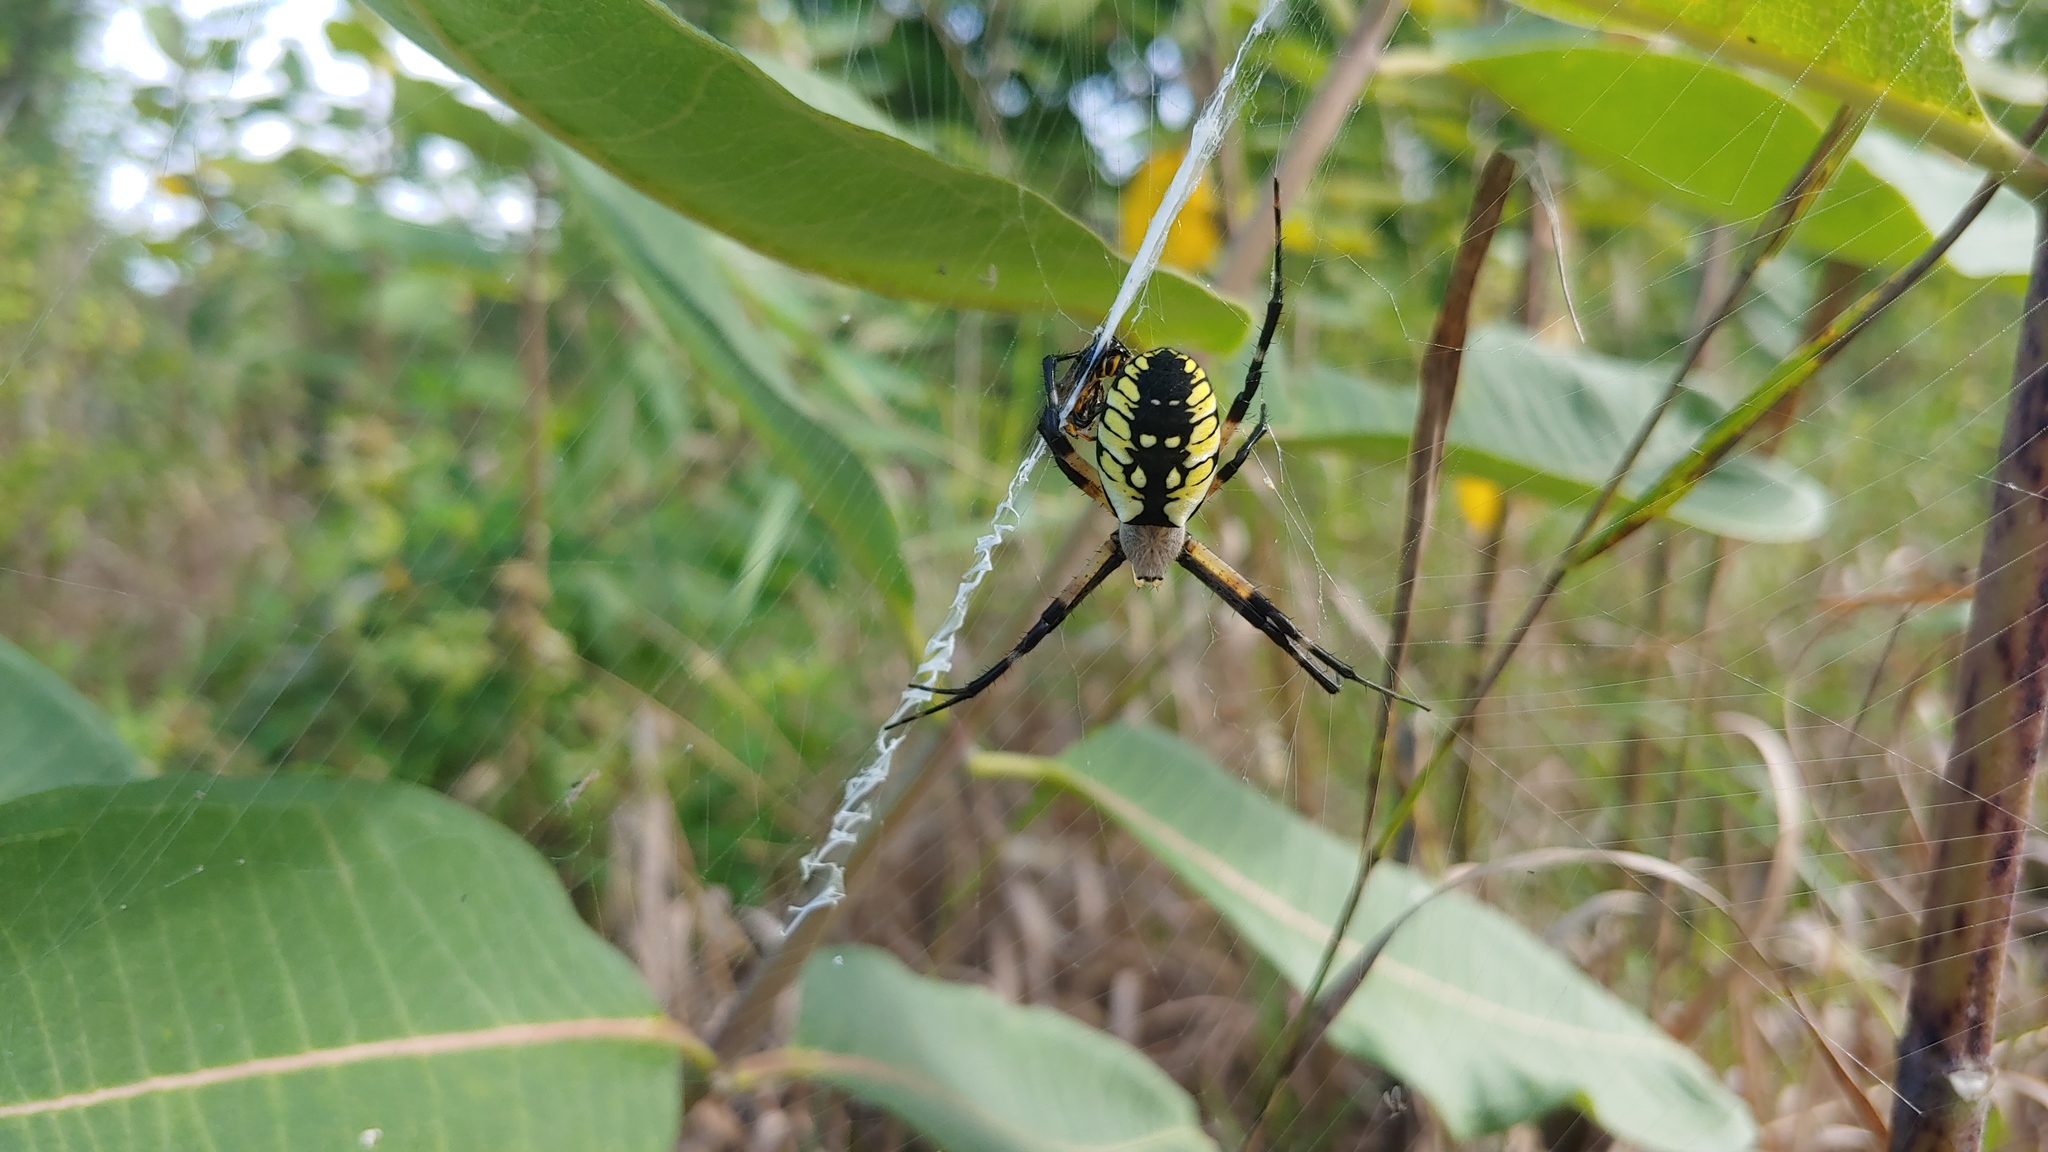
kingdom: Animalia
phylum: Arthropoda
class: Arachnida
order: Araneae
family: Araneidae
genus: Argiope
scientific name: Argiope aurantia
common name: Orb weavers
